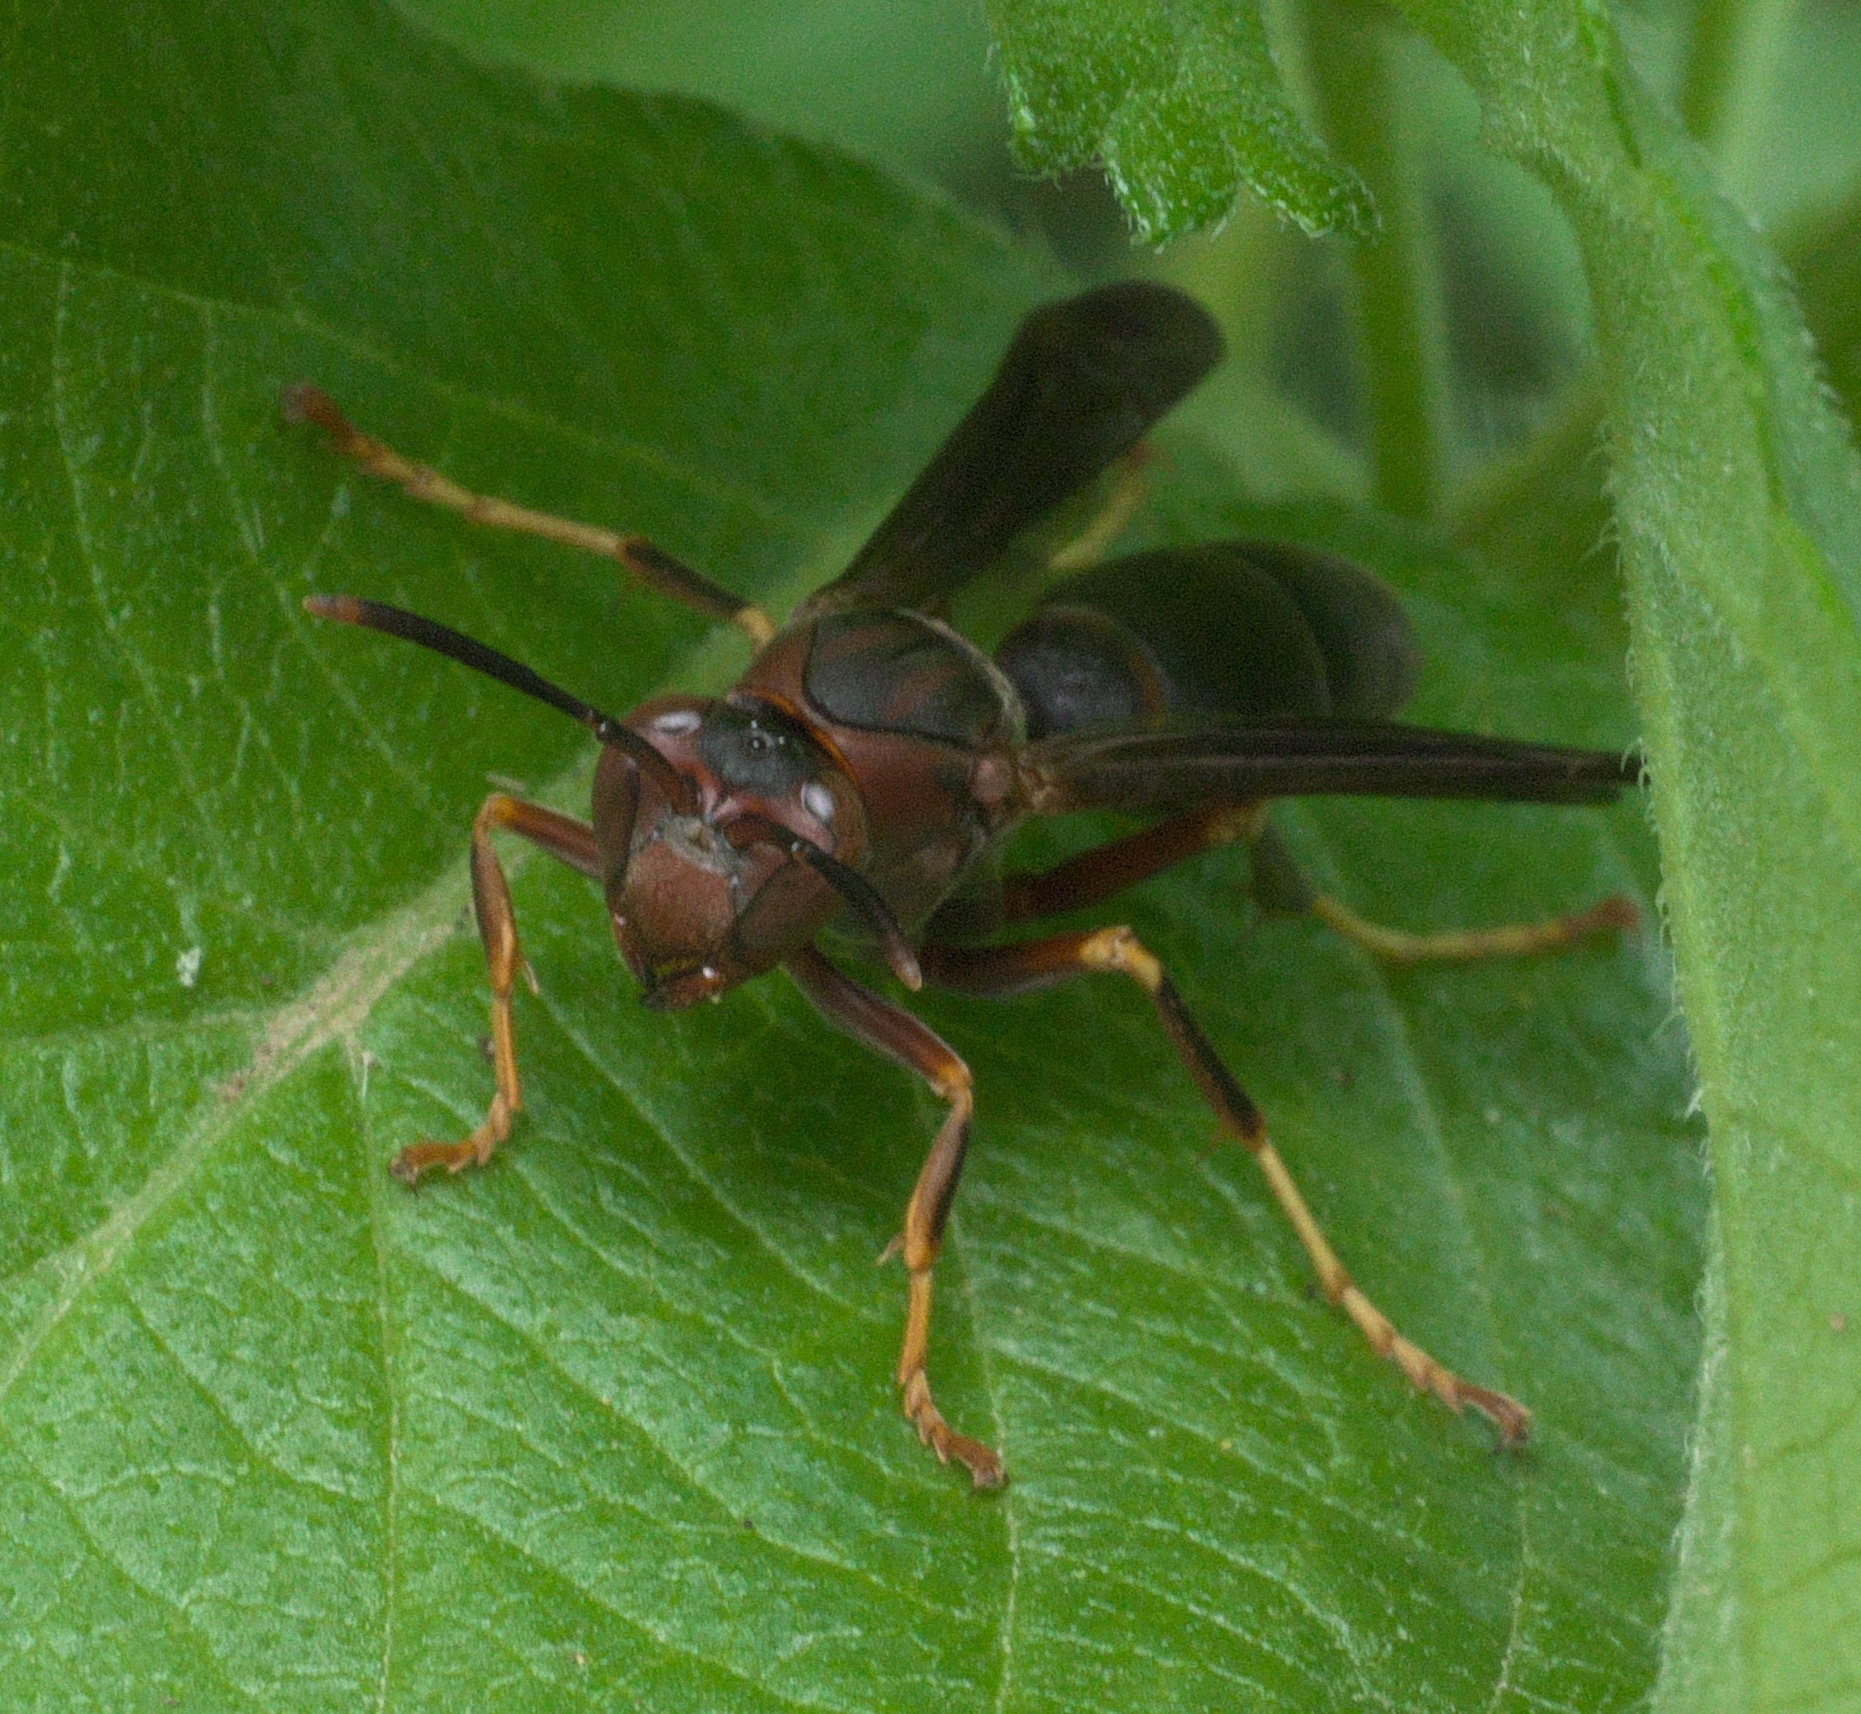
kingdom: Animalia
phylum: Arthropoda
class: Insecta
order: Hymenoptera
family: Eumenidae
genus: Polistes
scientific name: Polistes metricus
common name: Metric paper wasp
